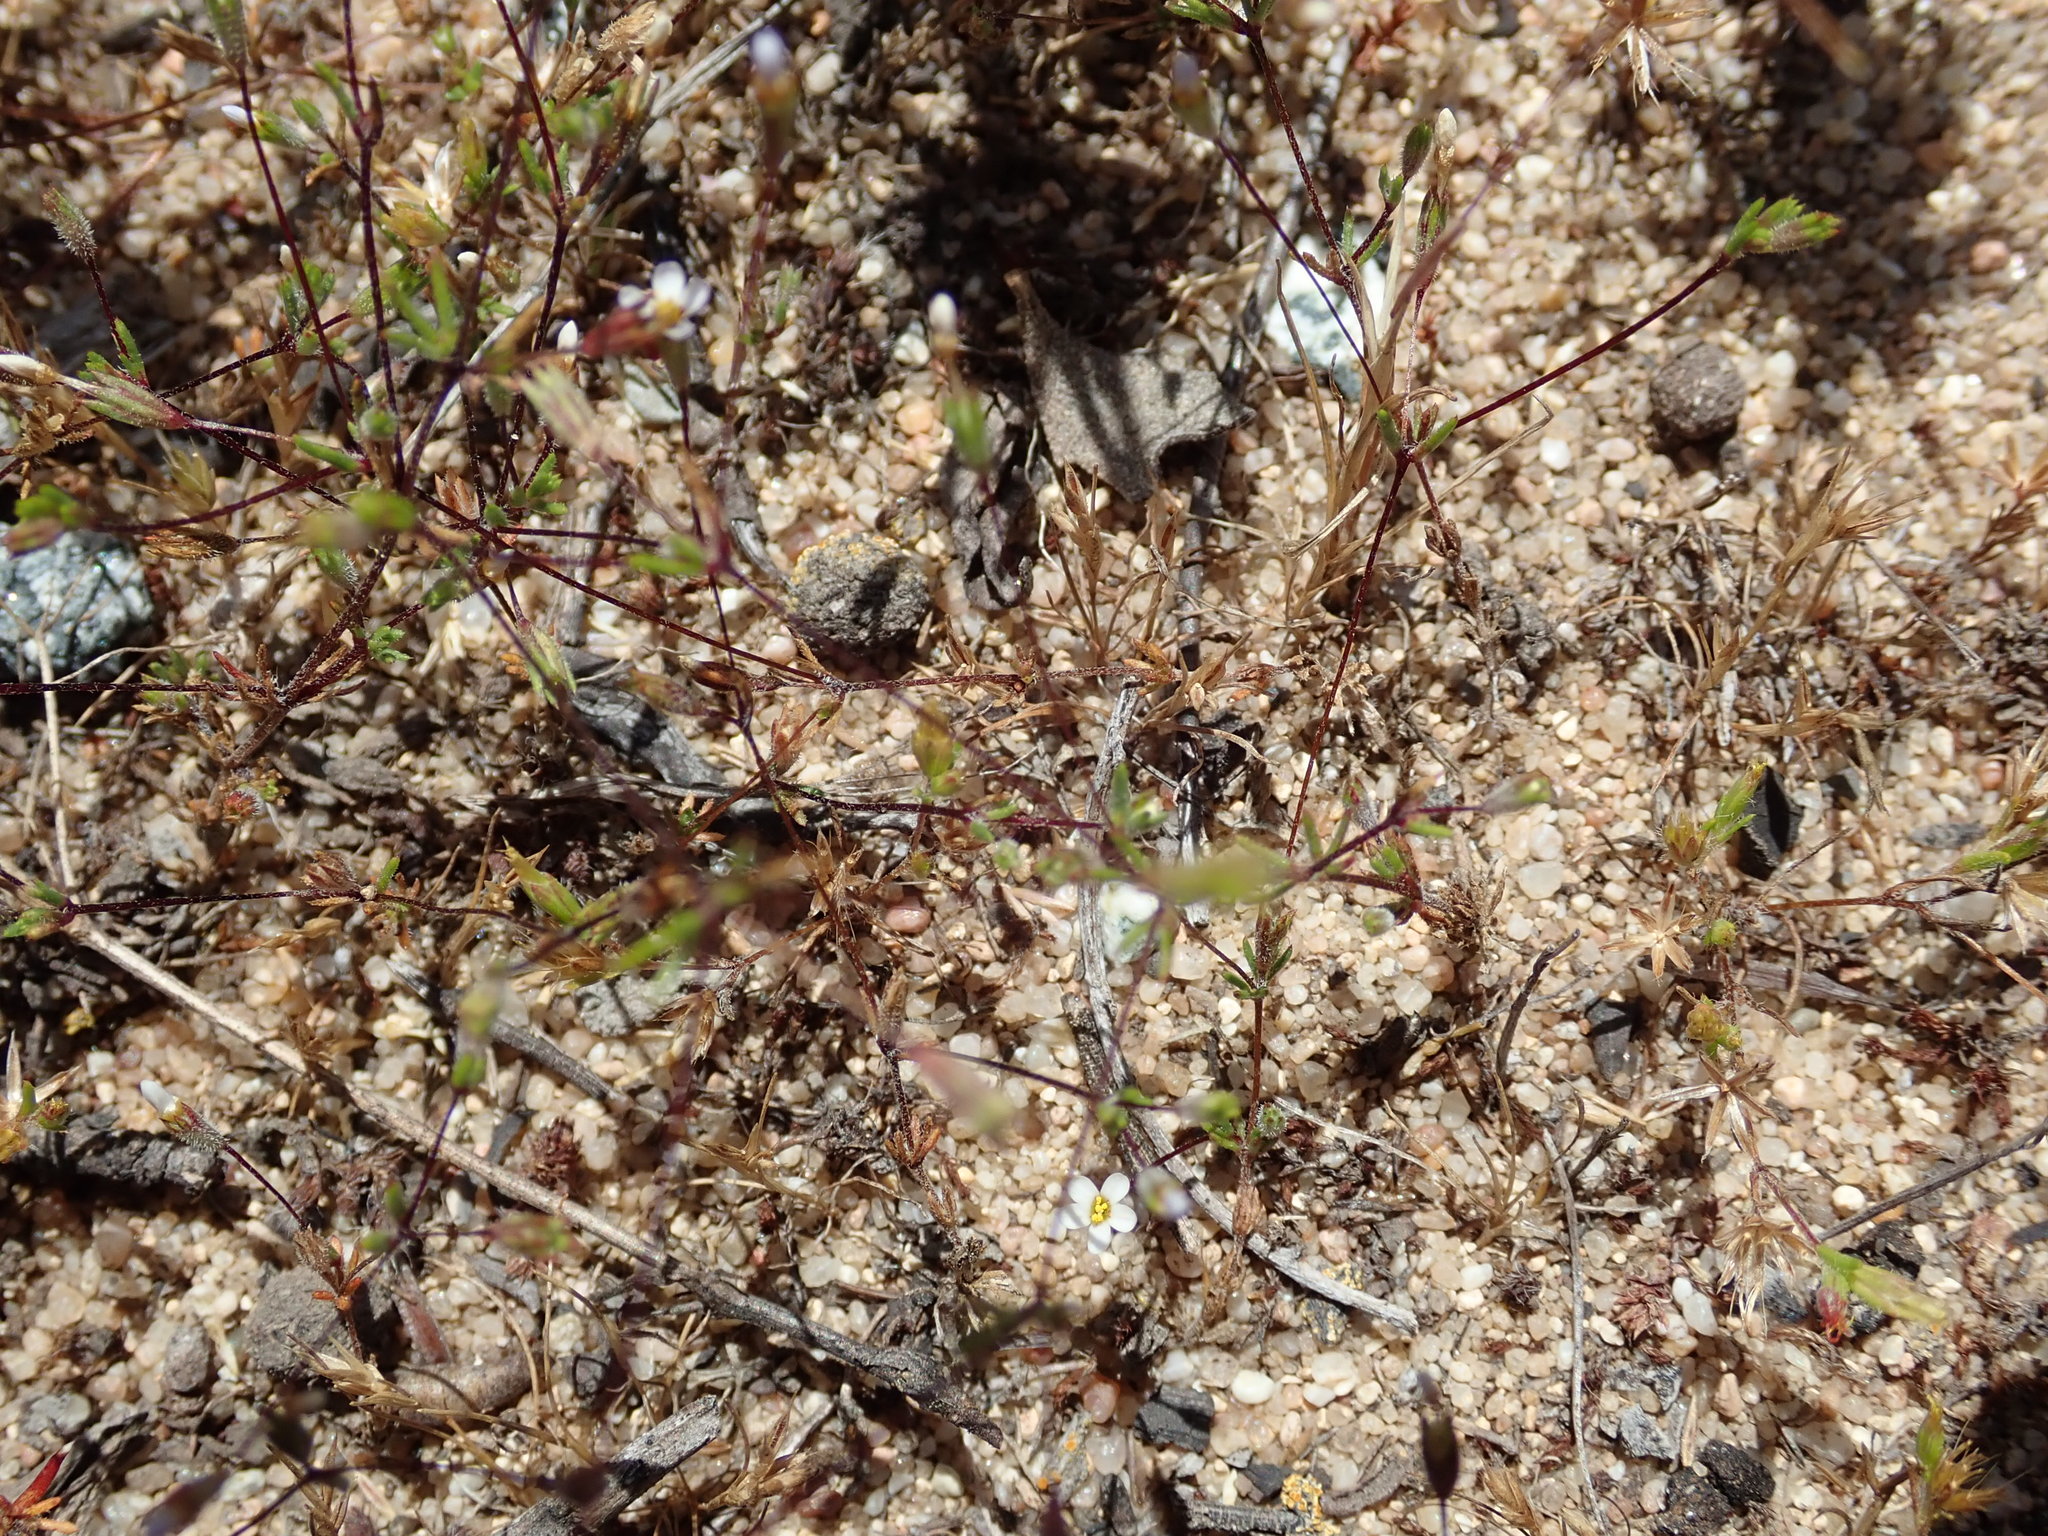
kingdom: Plantae
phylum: Tracheophyta
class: Magnoliopsida
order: Ericales
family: Polemoniaceae
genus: Leptosiphon
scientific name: Leptosiphon pygmaeus
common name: Pygmy linanthus
